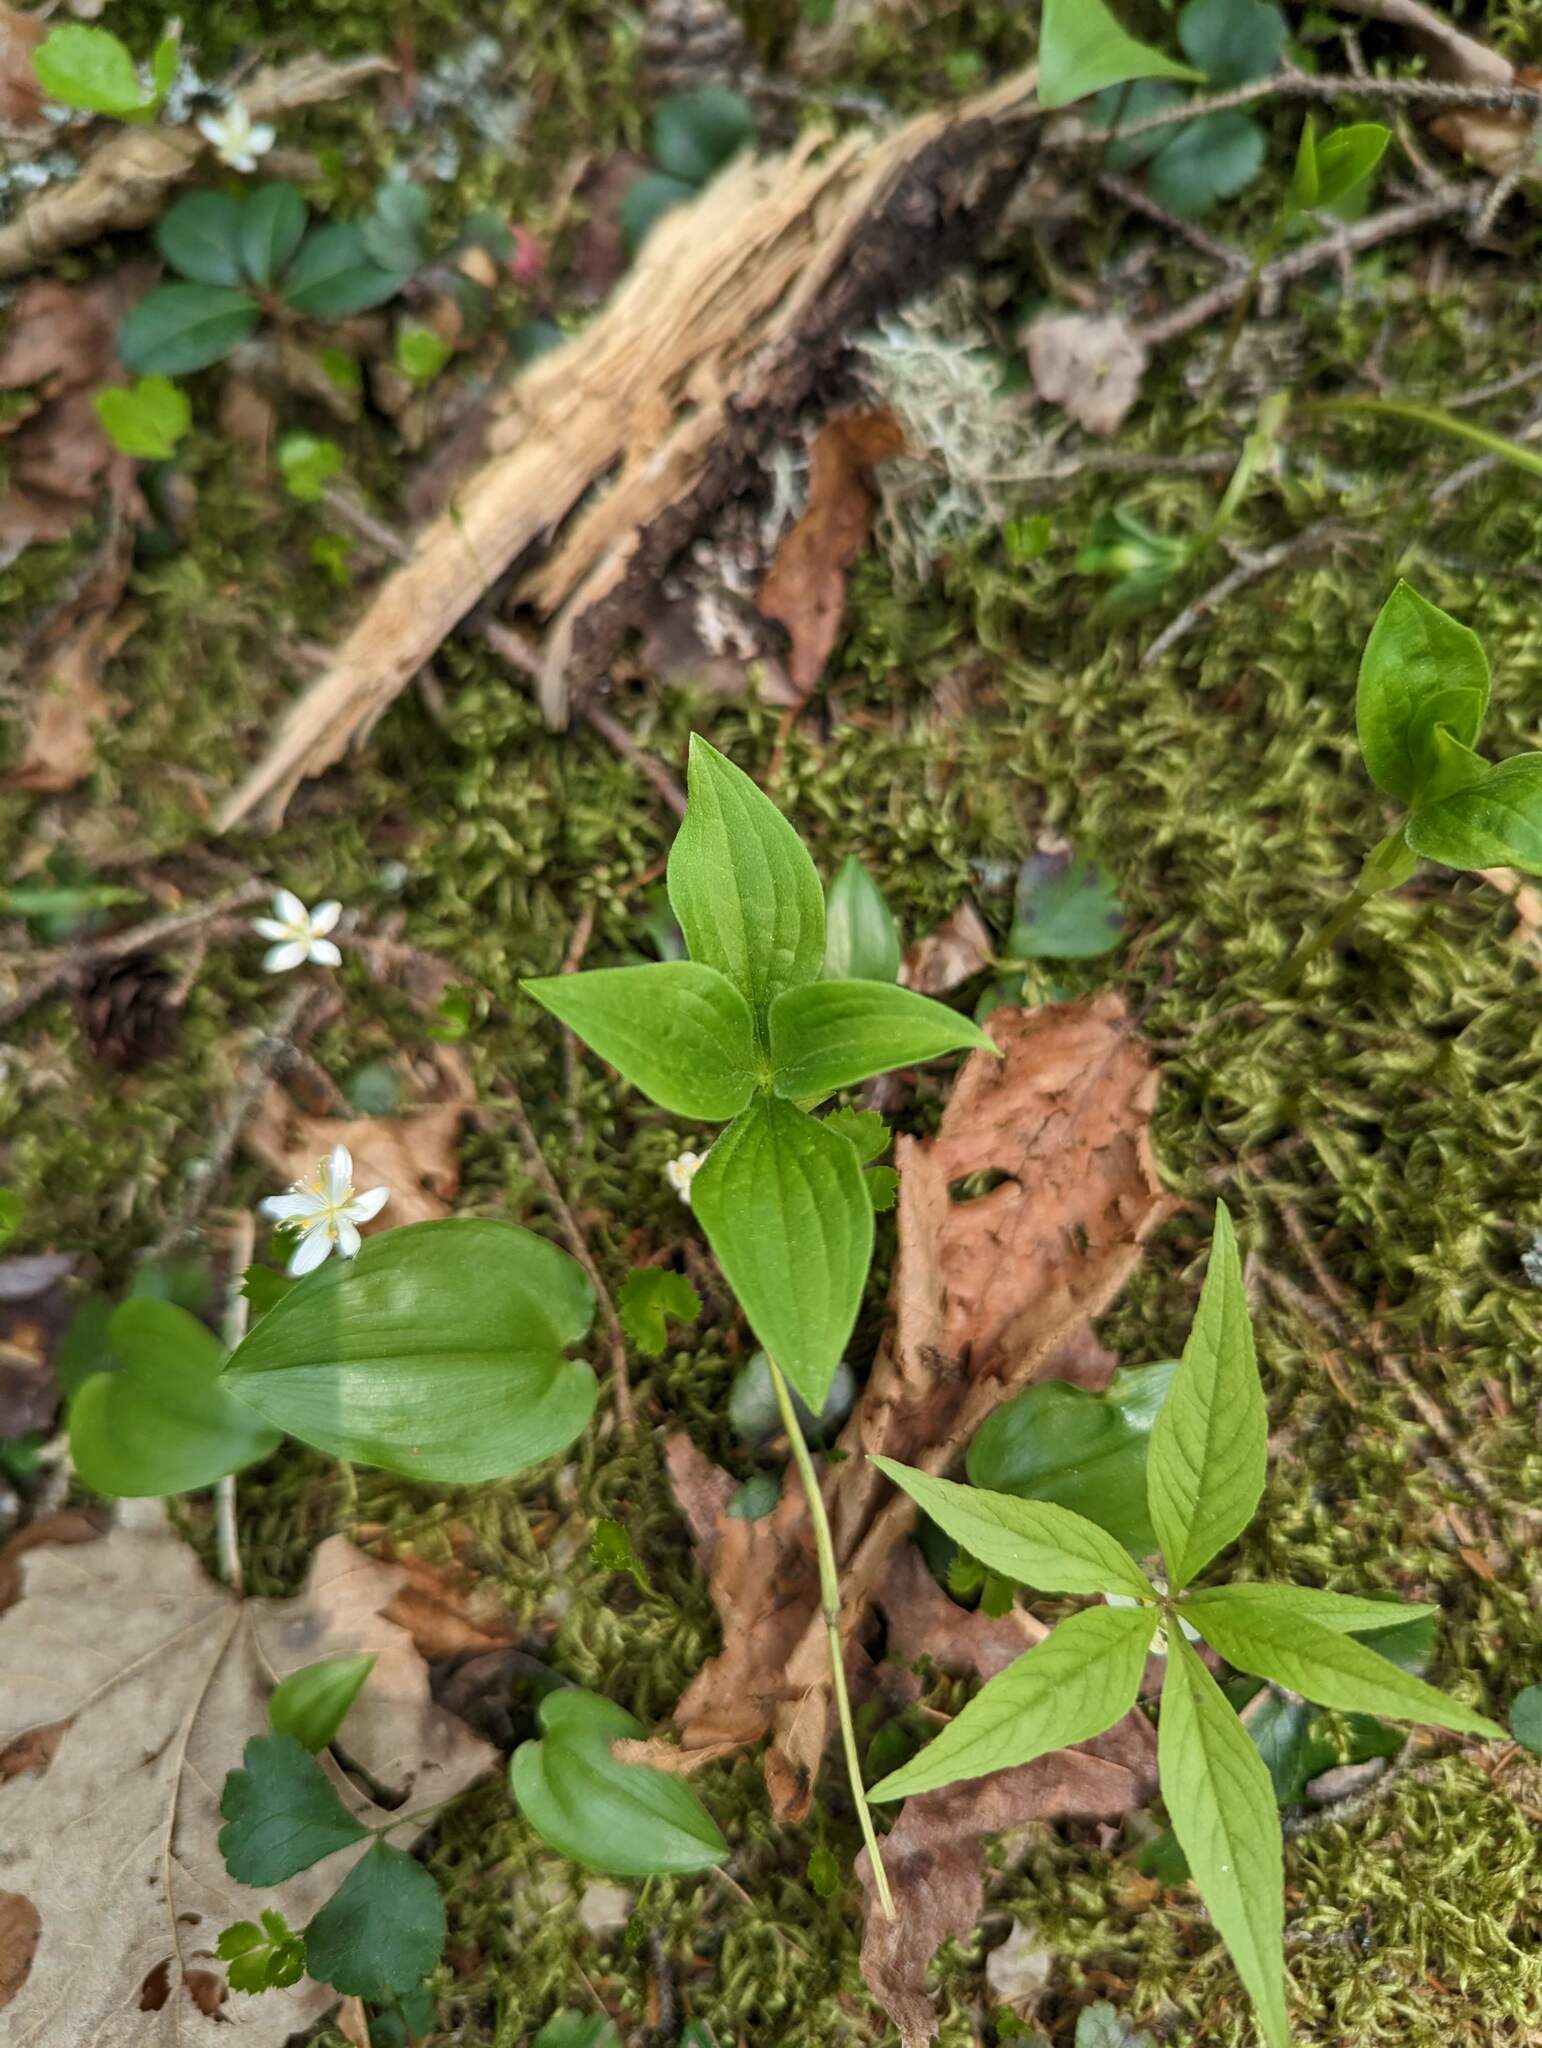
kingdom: Plantae
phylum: Tracheophyta
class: Magnoliopsida
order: Cornales
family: Cornaceae
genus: Cornus
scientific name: Cornus canadensis
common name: Creeping dogwood
